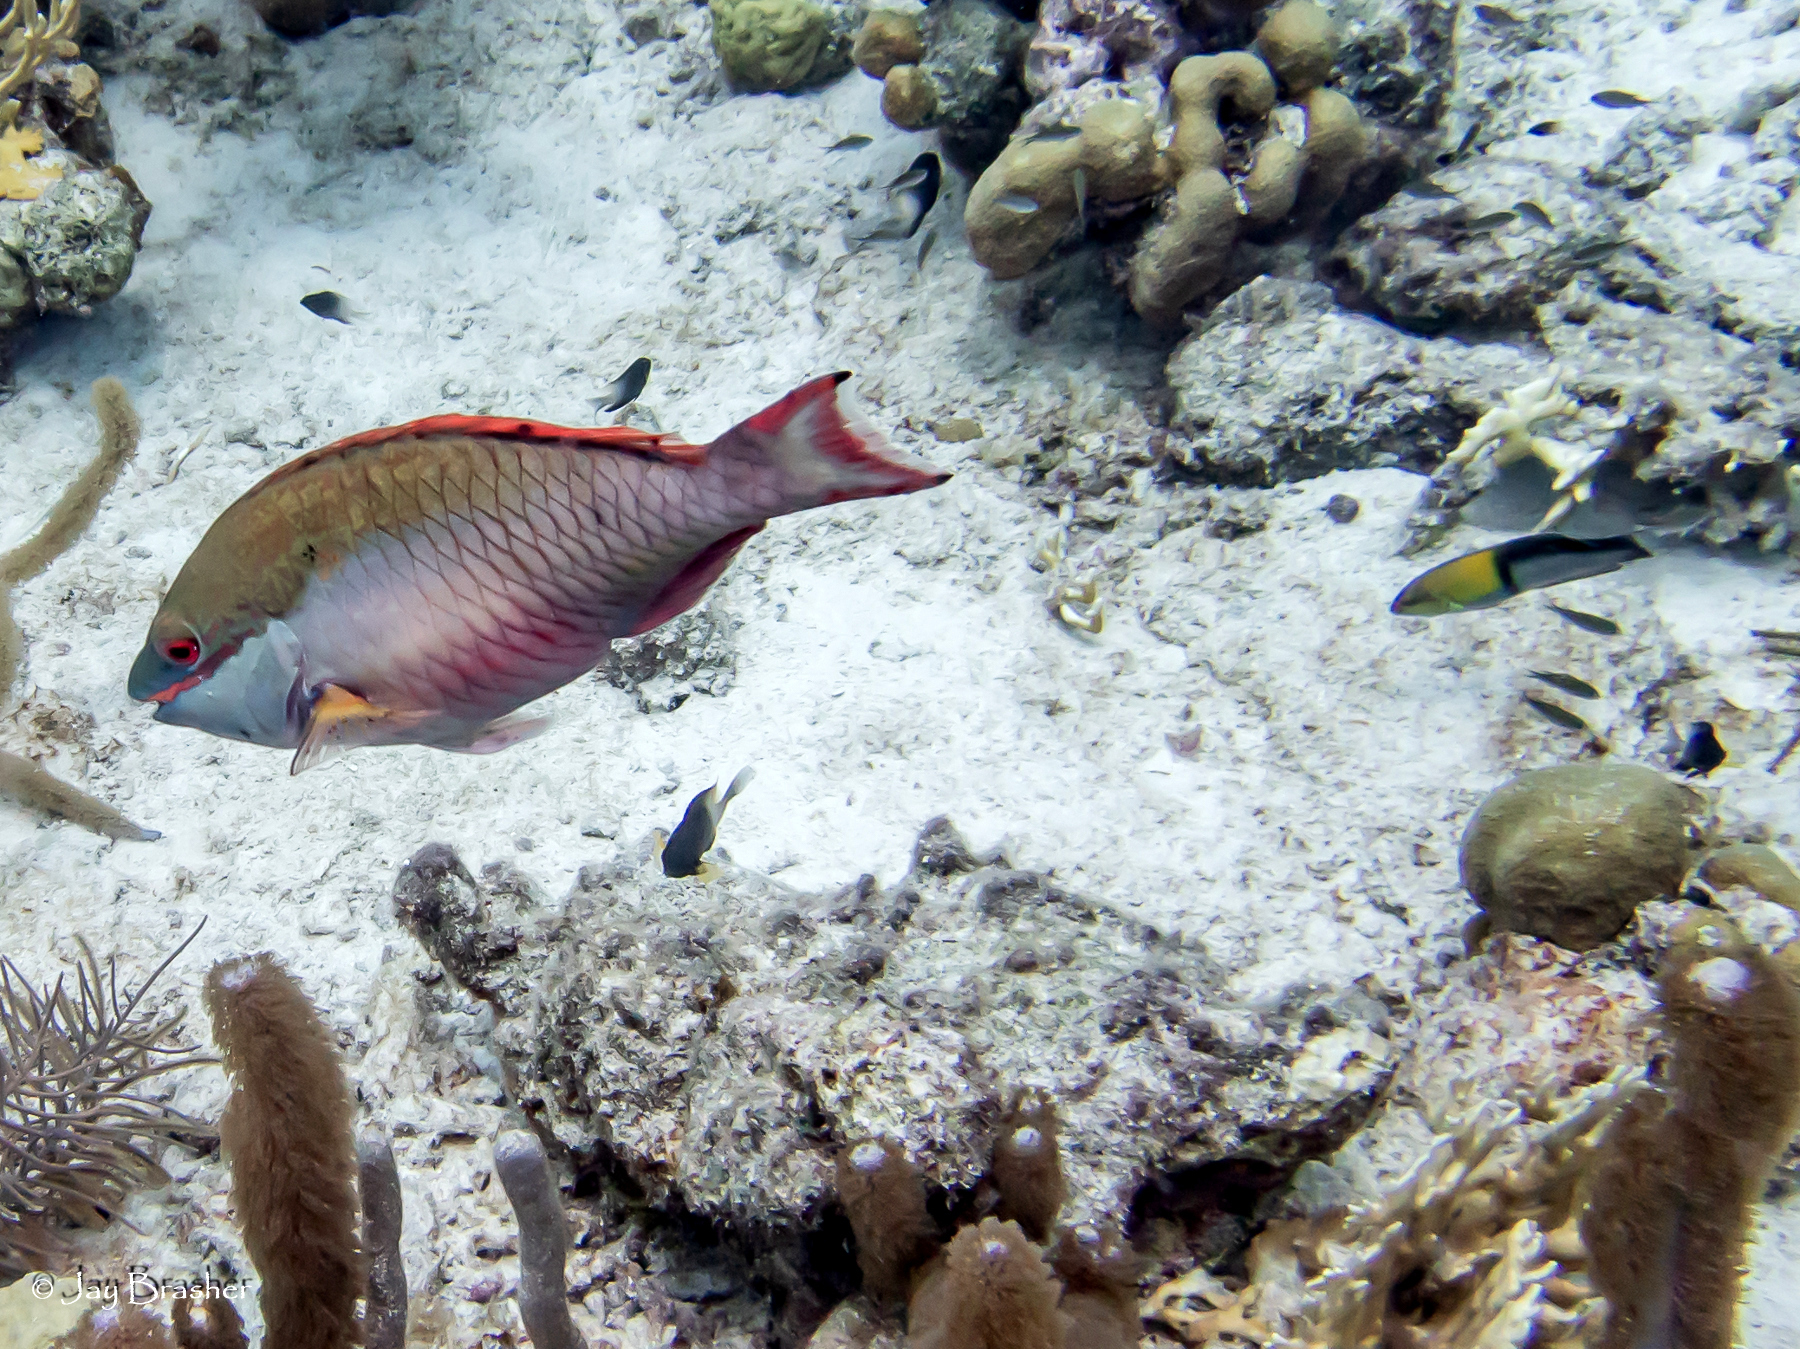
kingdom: Animalia
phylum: Chordata
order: Perciformes
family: Labridae
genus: Halichoeres
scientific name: Halichoeres garnoti
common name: Yellowhead wrasse
